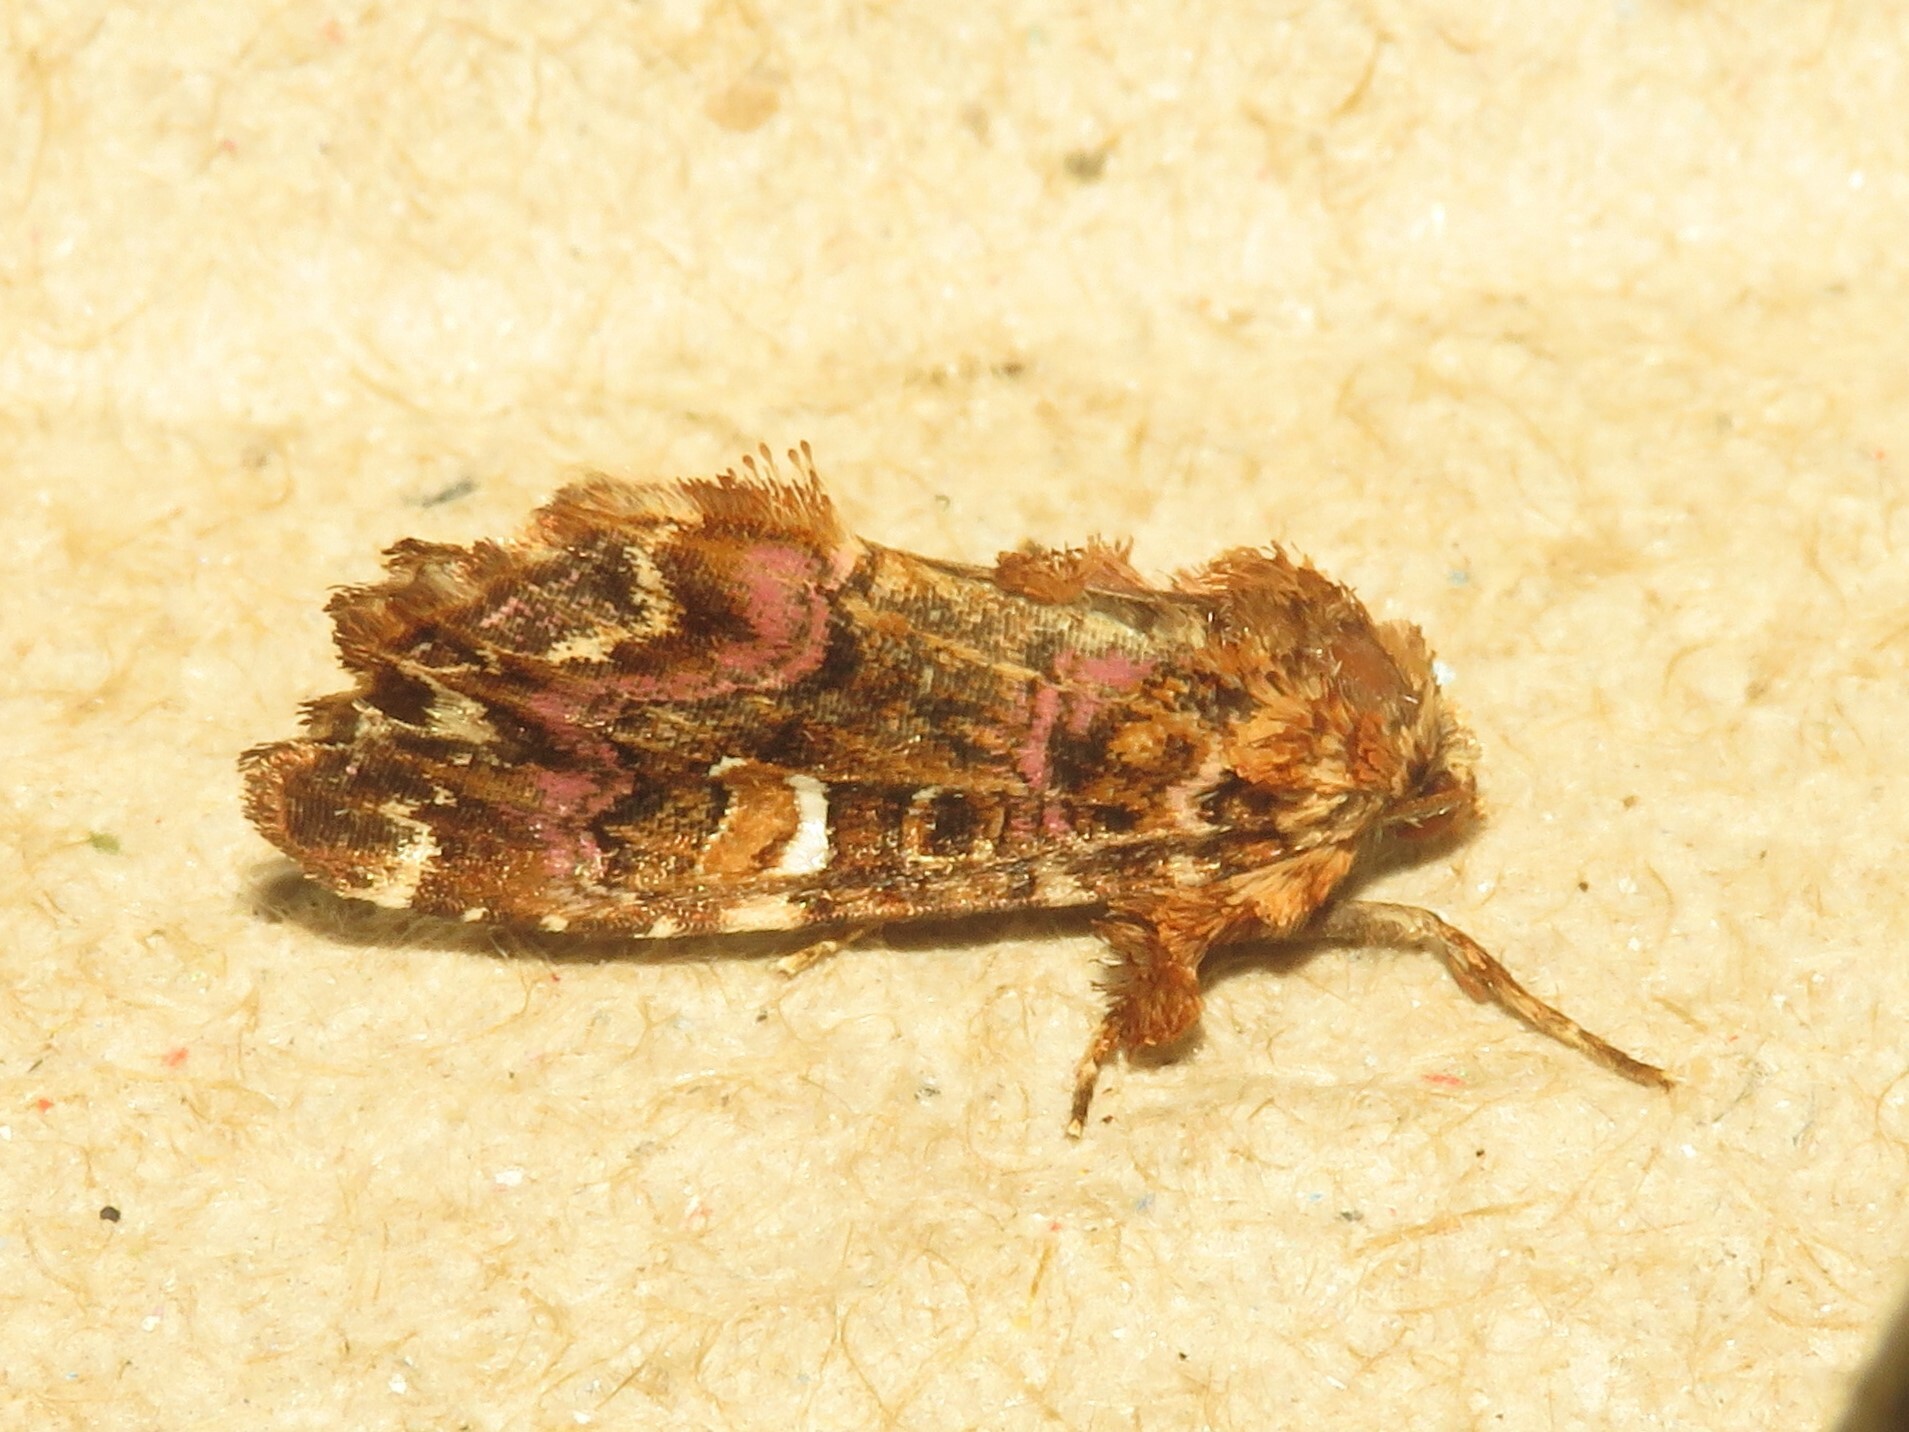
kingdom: Animalia
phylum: Arthropoda
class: Insecta
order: Lepidoptera
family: Noctuidae
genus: Callopistria
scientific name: Callopistria mollissima
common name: Pink-shaded fern moth
